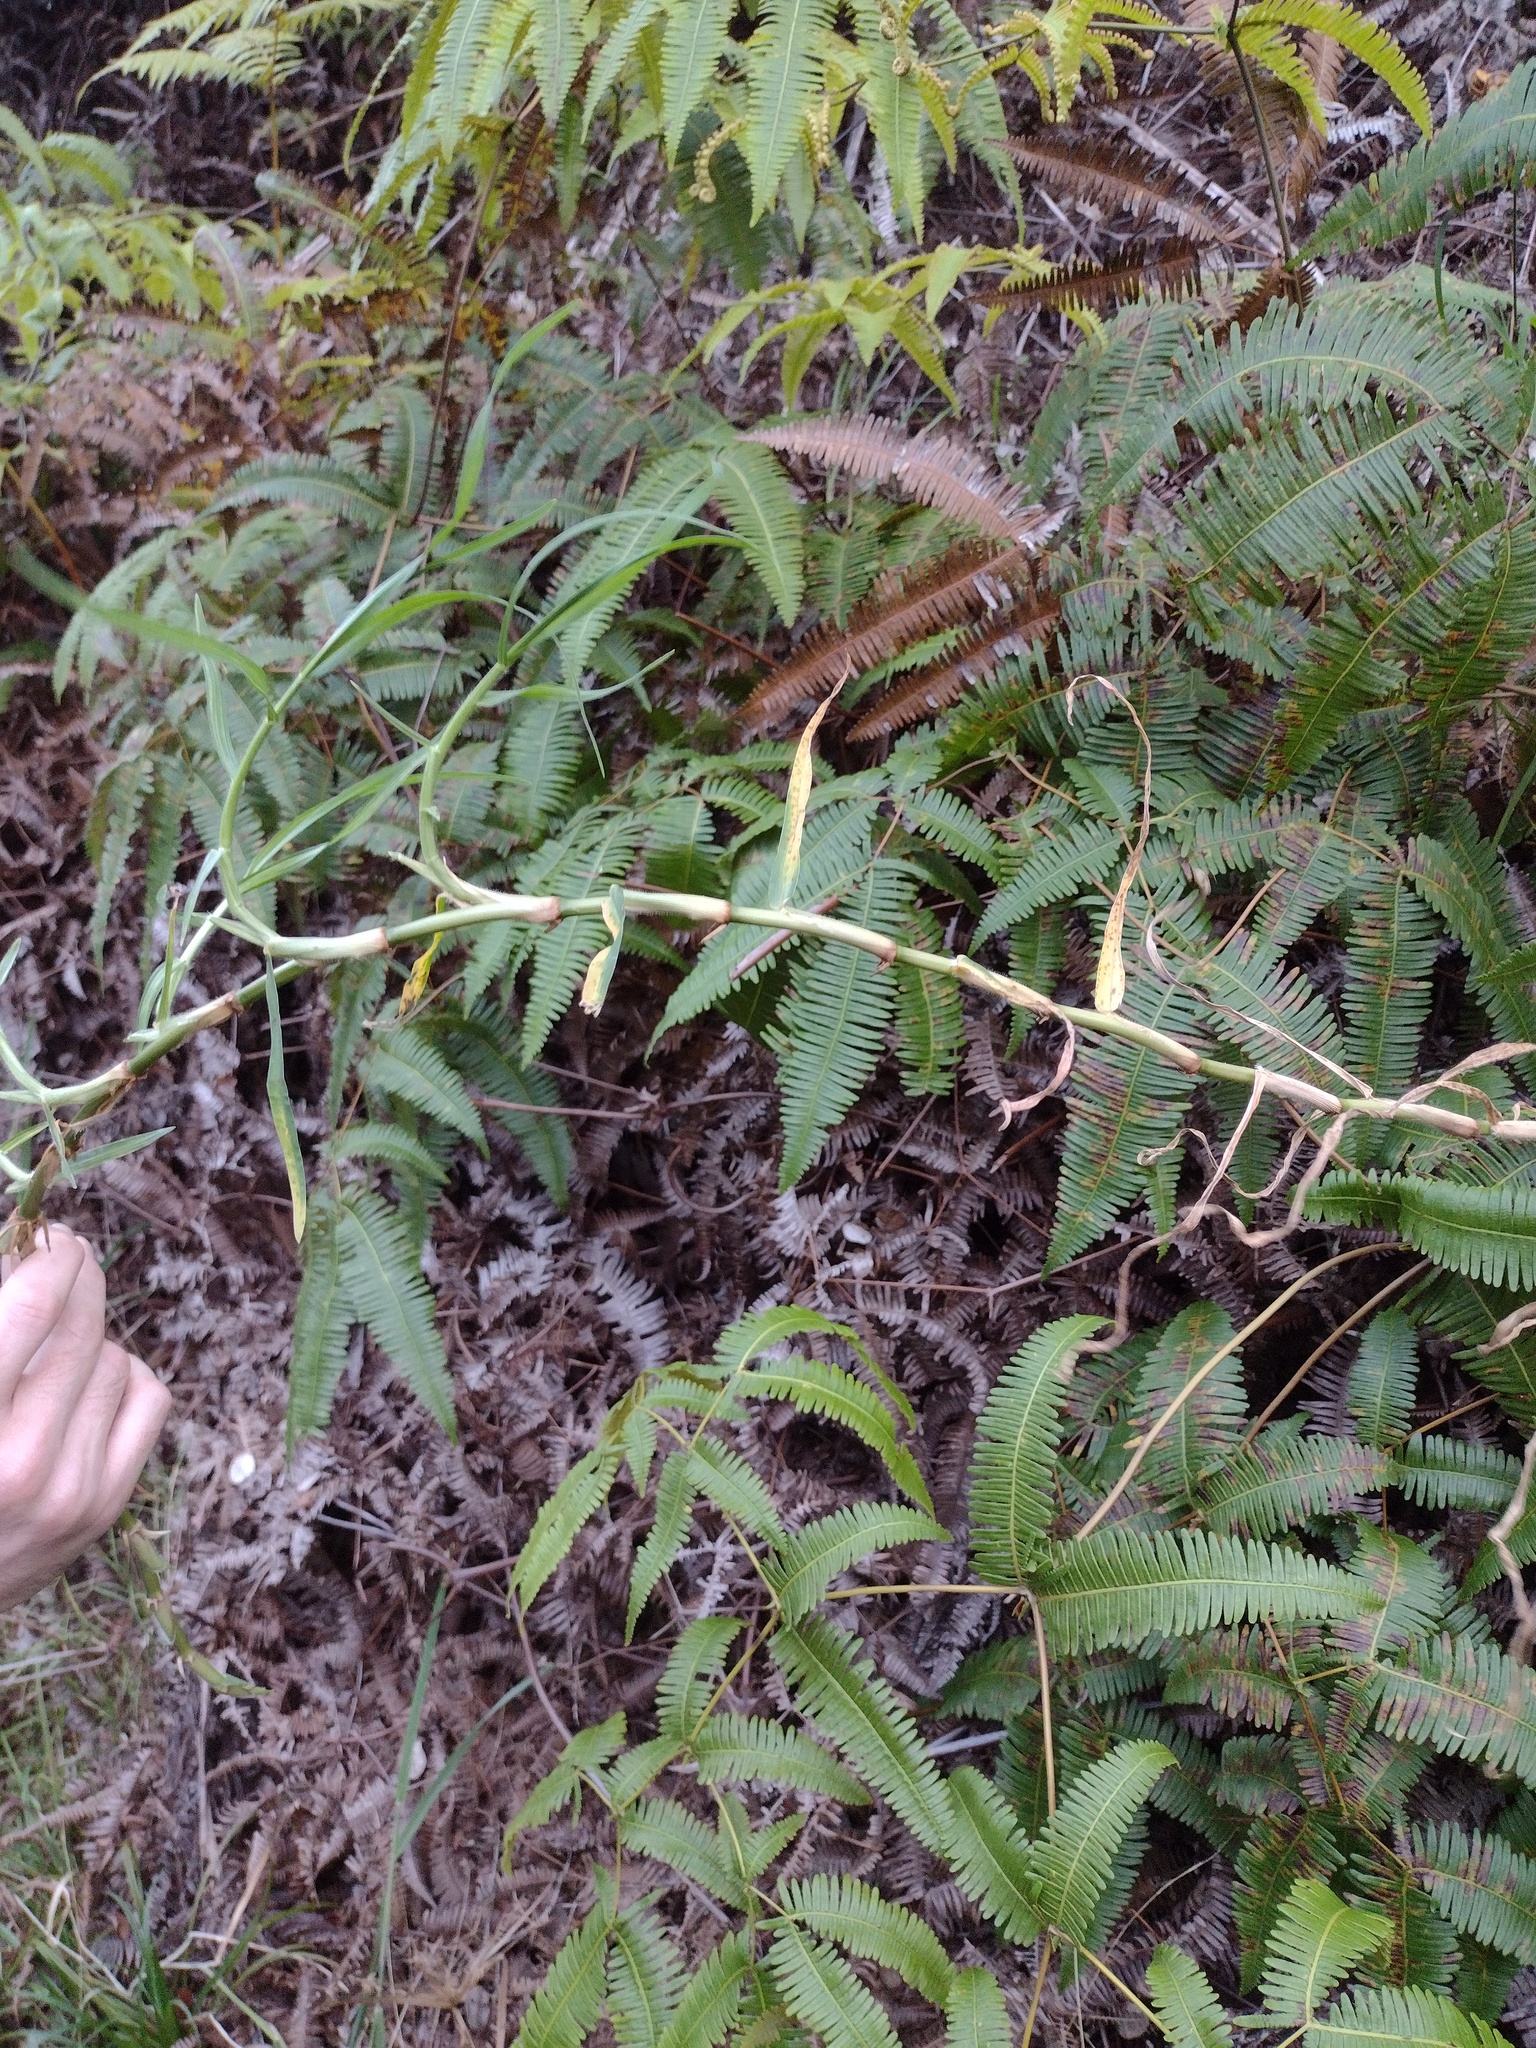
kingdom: Plantae
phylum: Tracheophyta
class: Liliopsida
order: Poales
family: Poaceae
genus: Cenchrus
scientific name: Cenchrus clandestinus
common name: Kikuyugrass
